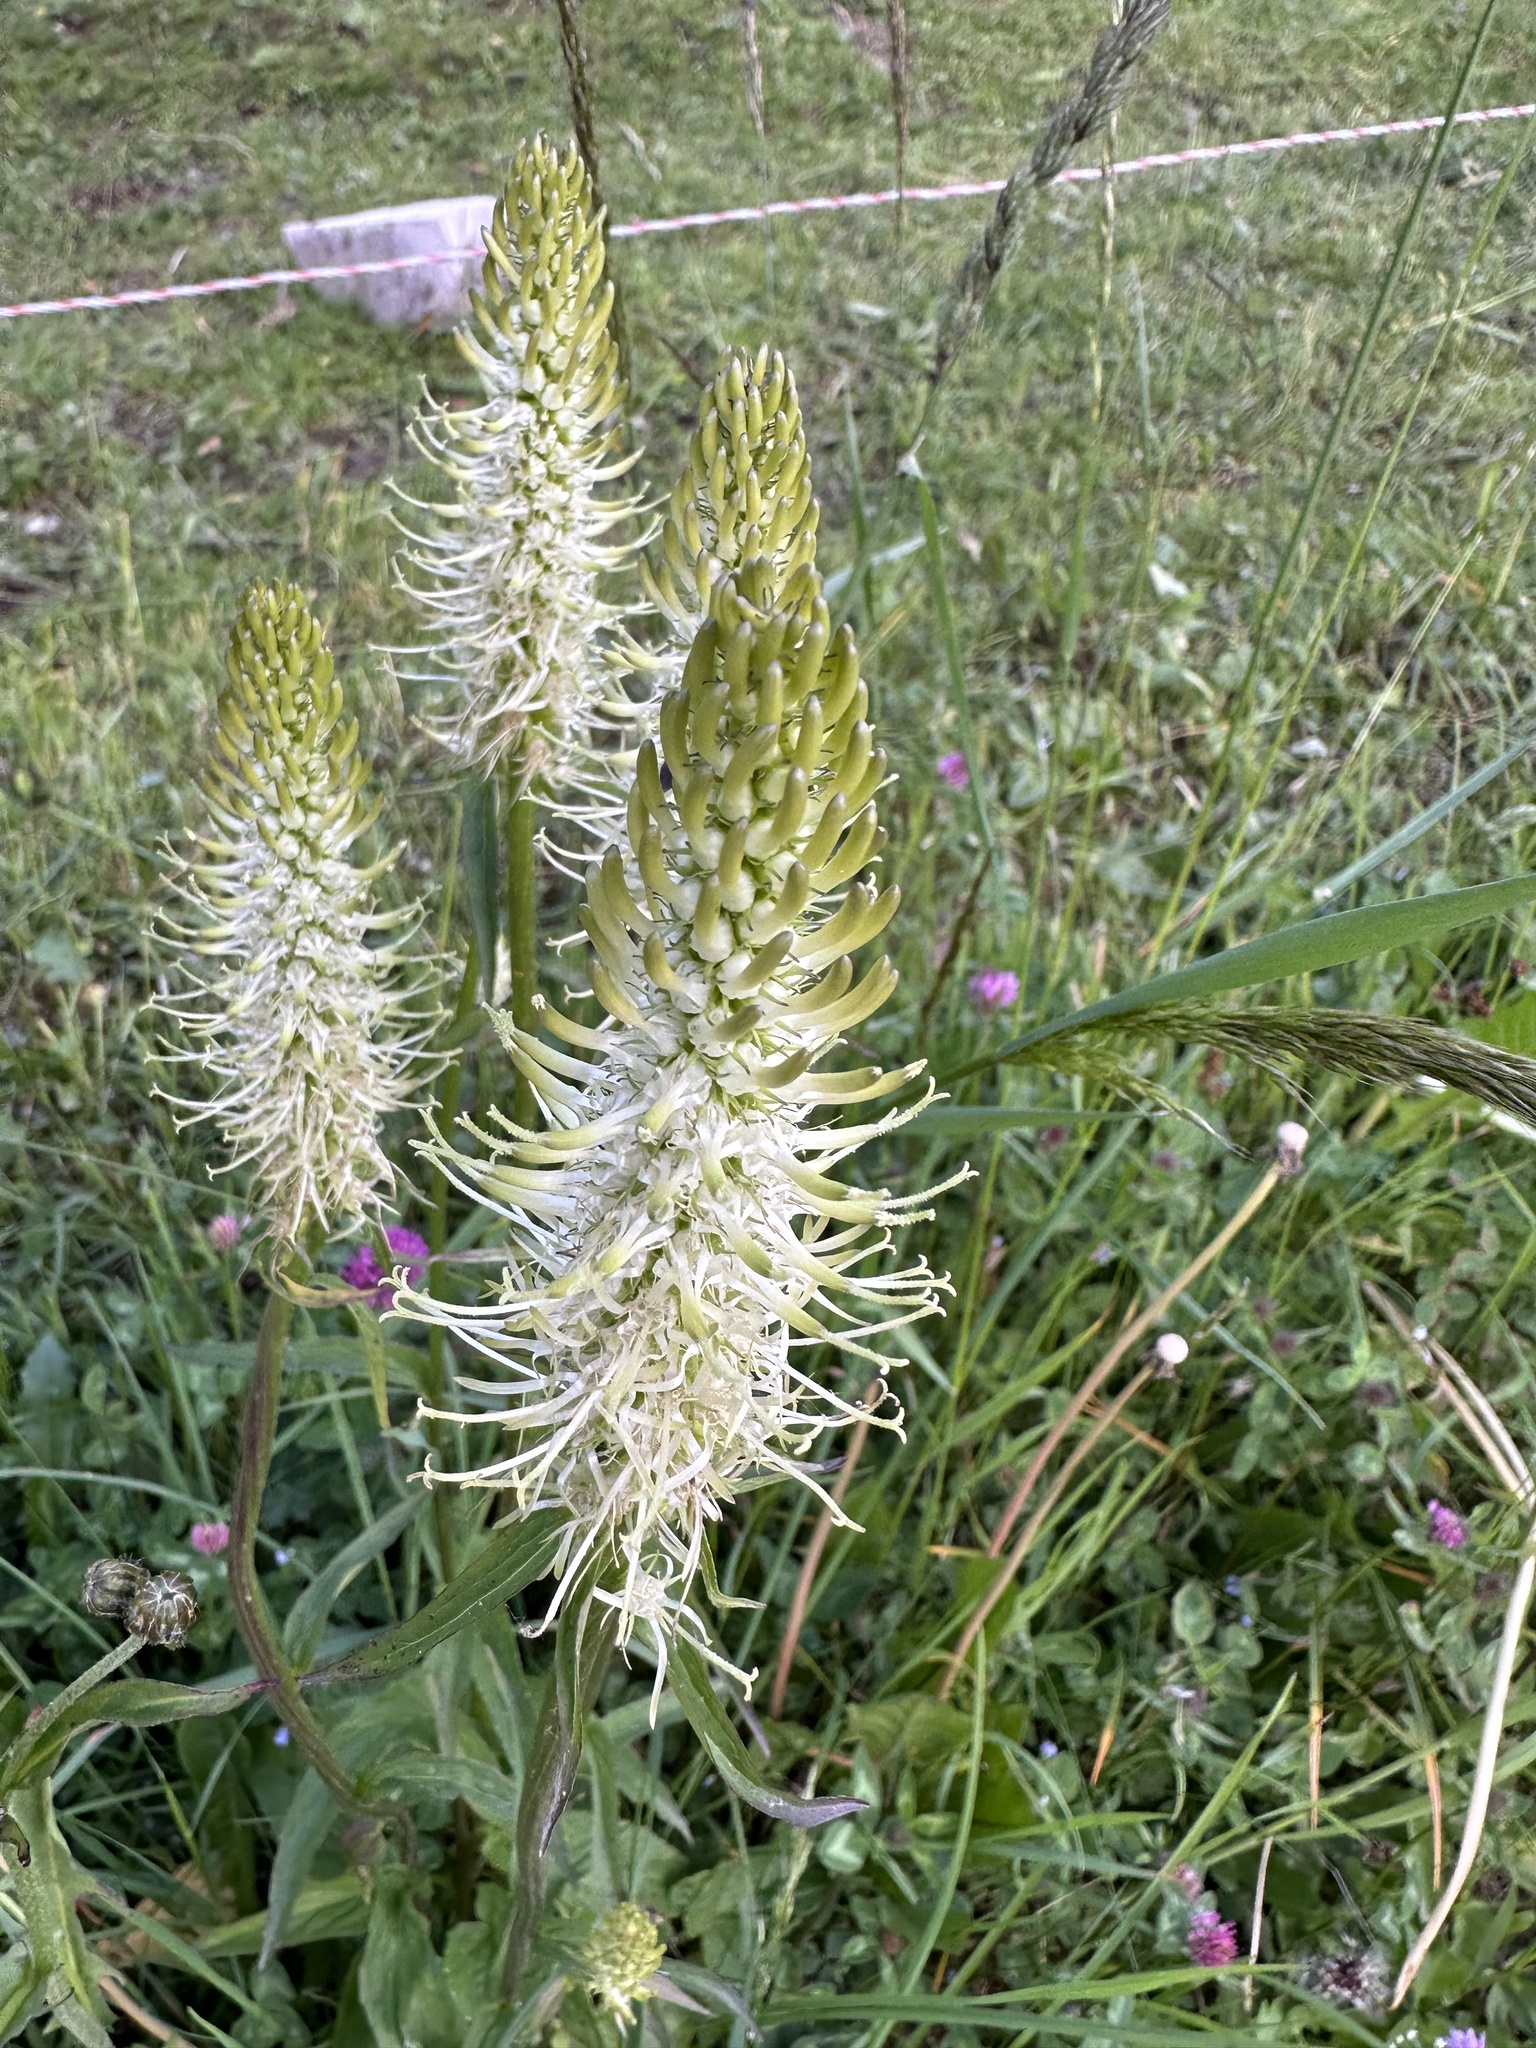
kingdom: Plantae
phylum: Tracheophyta
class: Magnoliopsida
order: Asterales
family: Campanulaceae
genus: Phyteuma
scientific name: Phyteuma spicatum
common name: Spiked rampion
